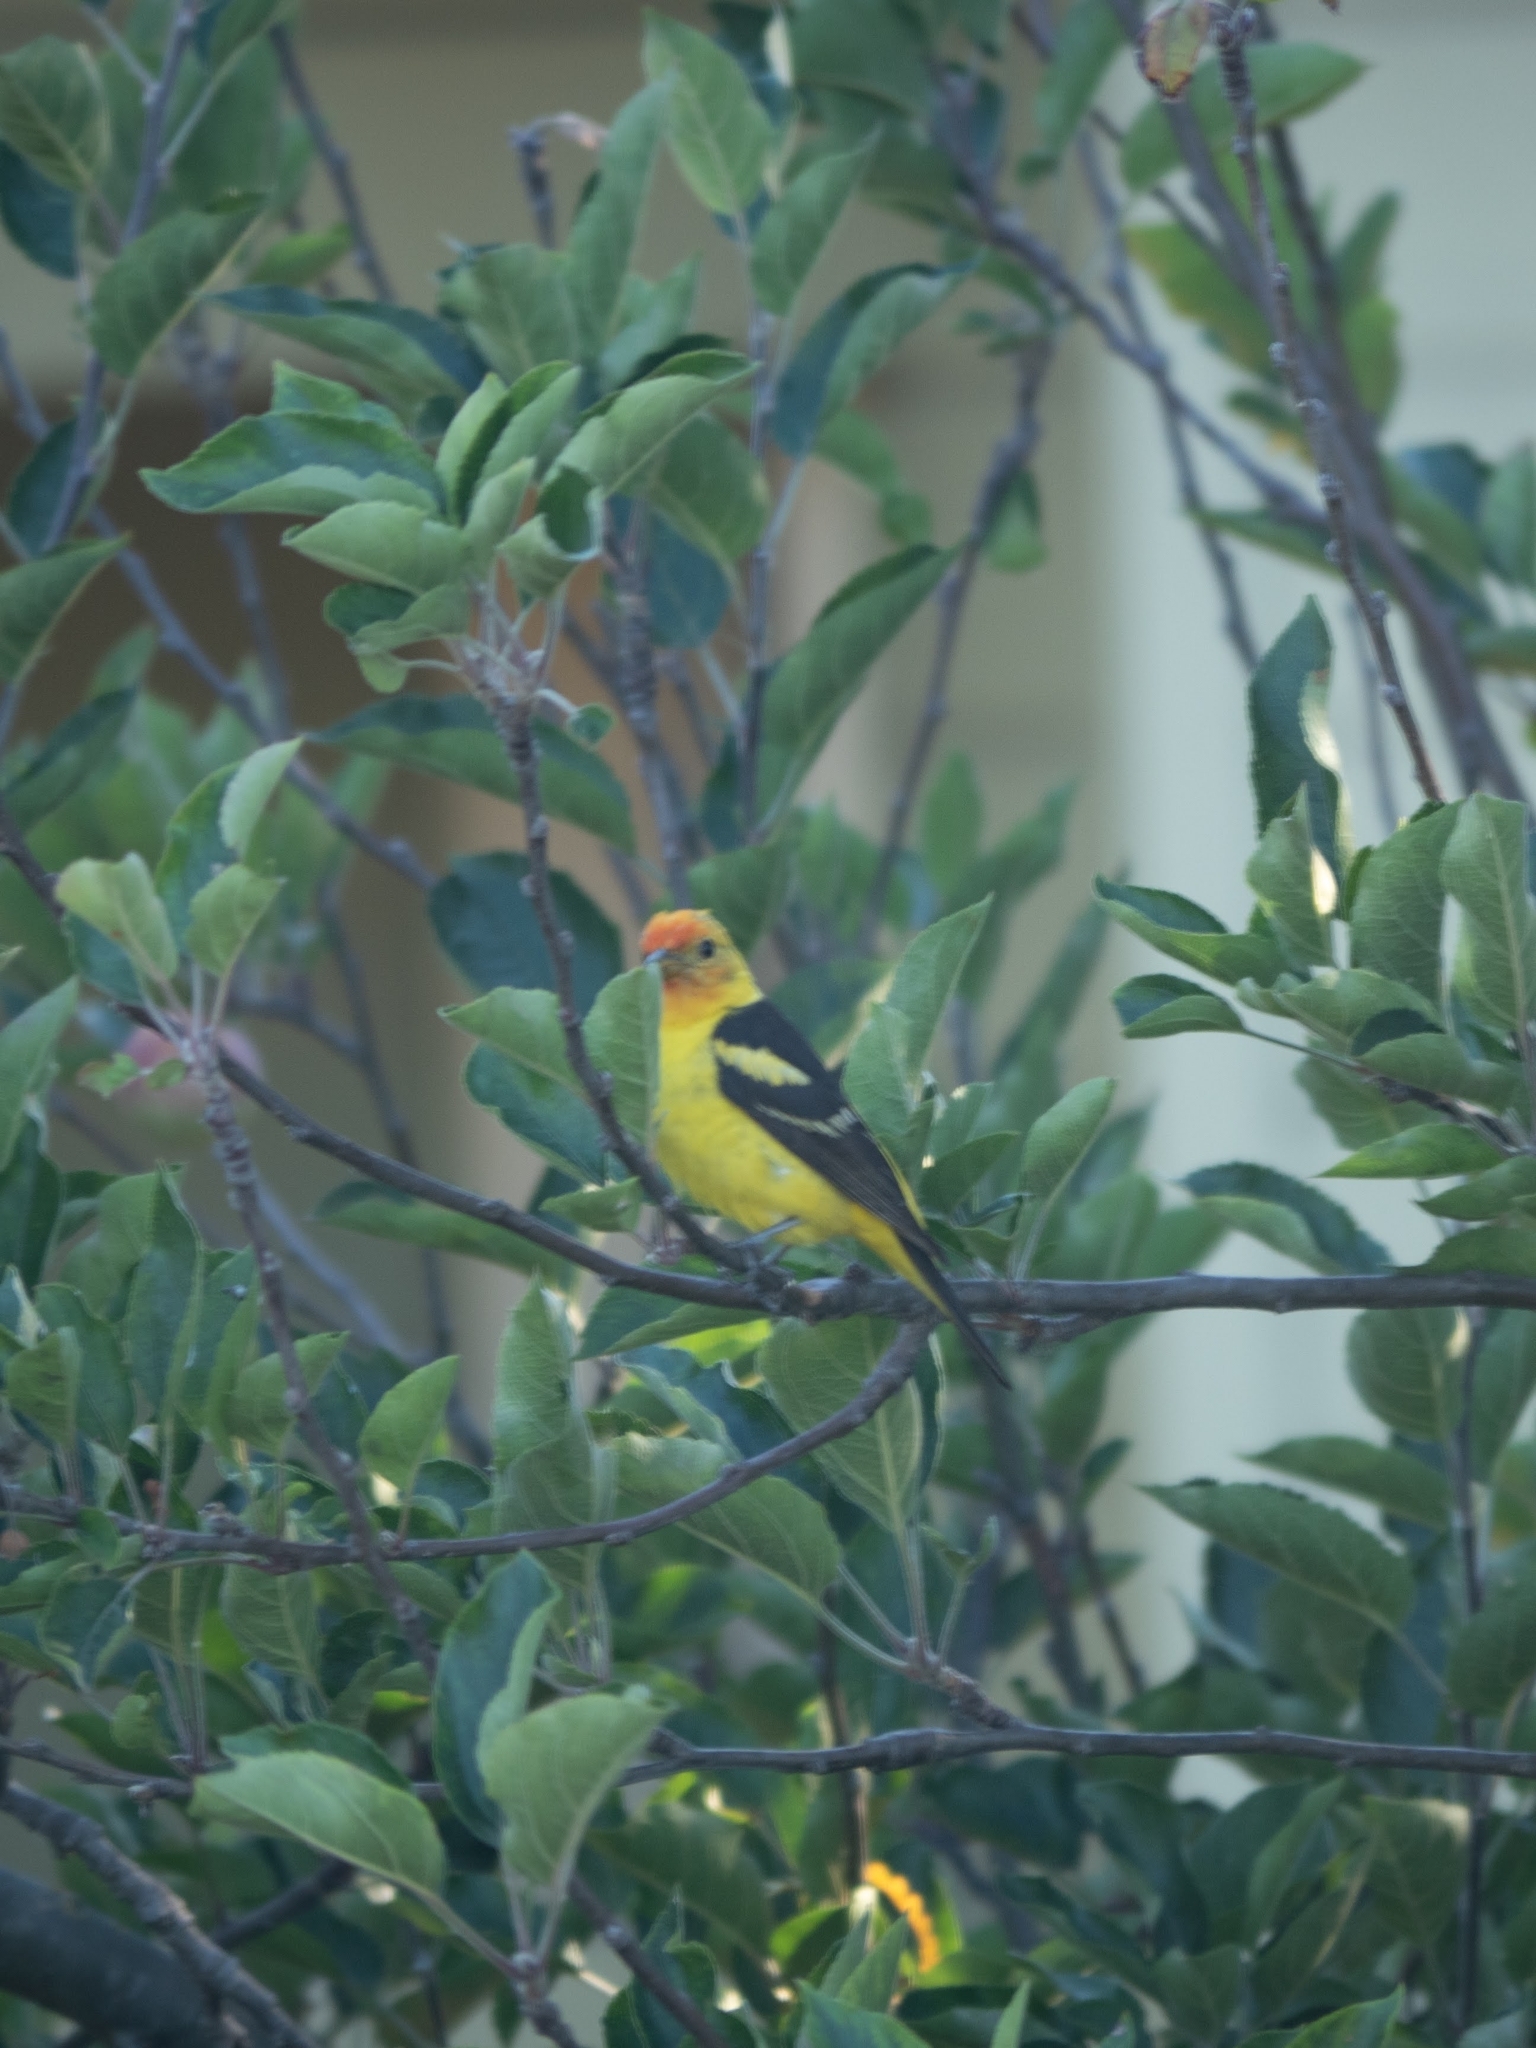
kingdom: Animalia
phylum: Chordata
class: Aves
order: Passeriformes
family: Cardinalidae
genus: Piranga
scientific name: Piranga ludoviciana
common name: Western tanager
